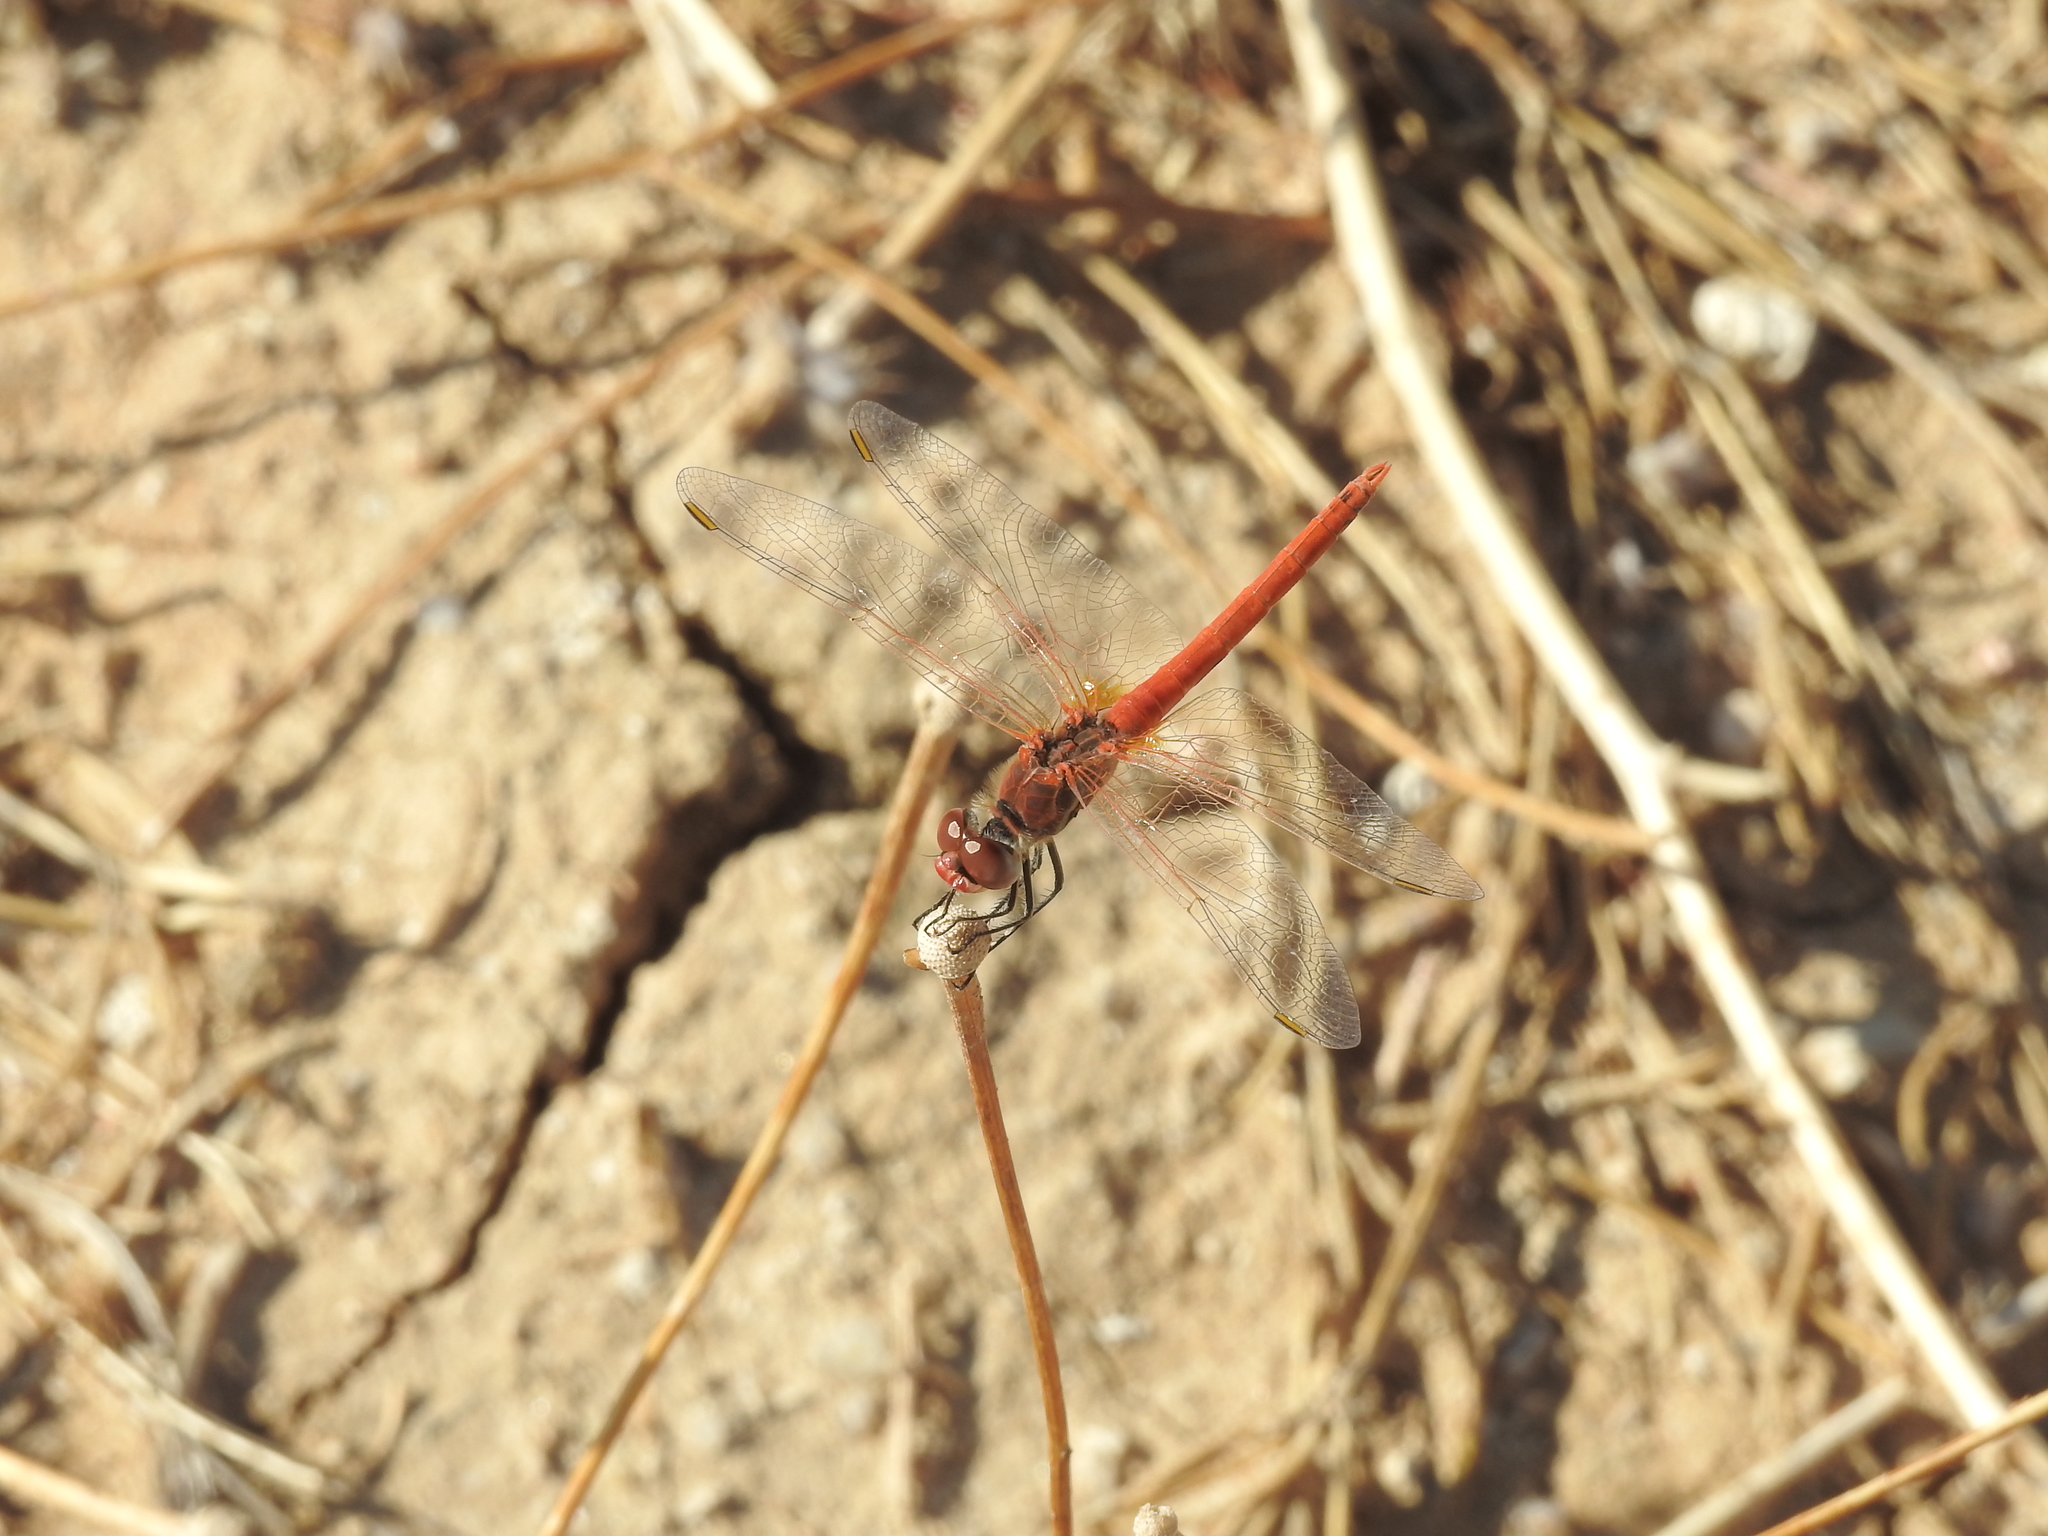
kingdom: Animalia
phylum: Arthropoda
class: Insecta
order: Odonata
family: Libellulidae
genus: Sympetrum
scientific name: Sympetrum fonscolombii
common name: Red-veined darter
